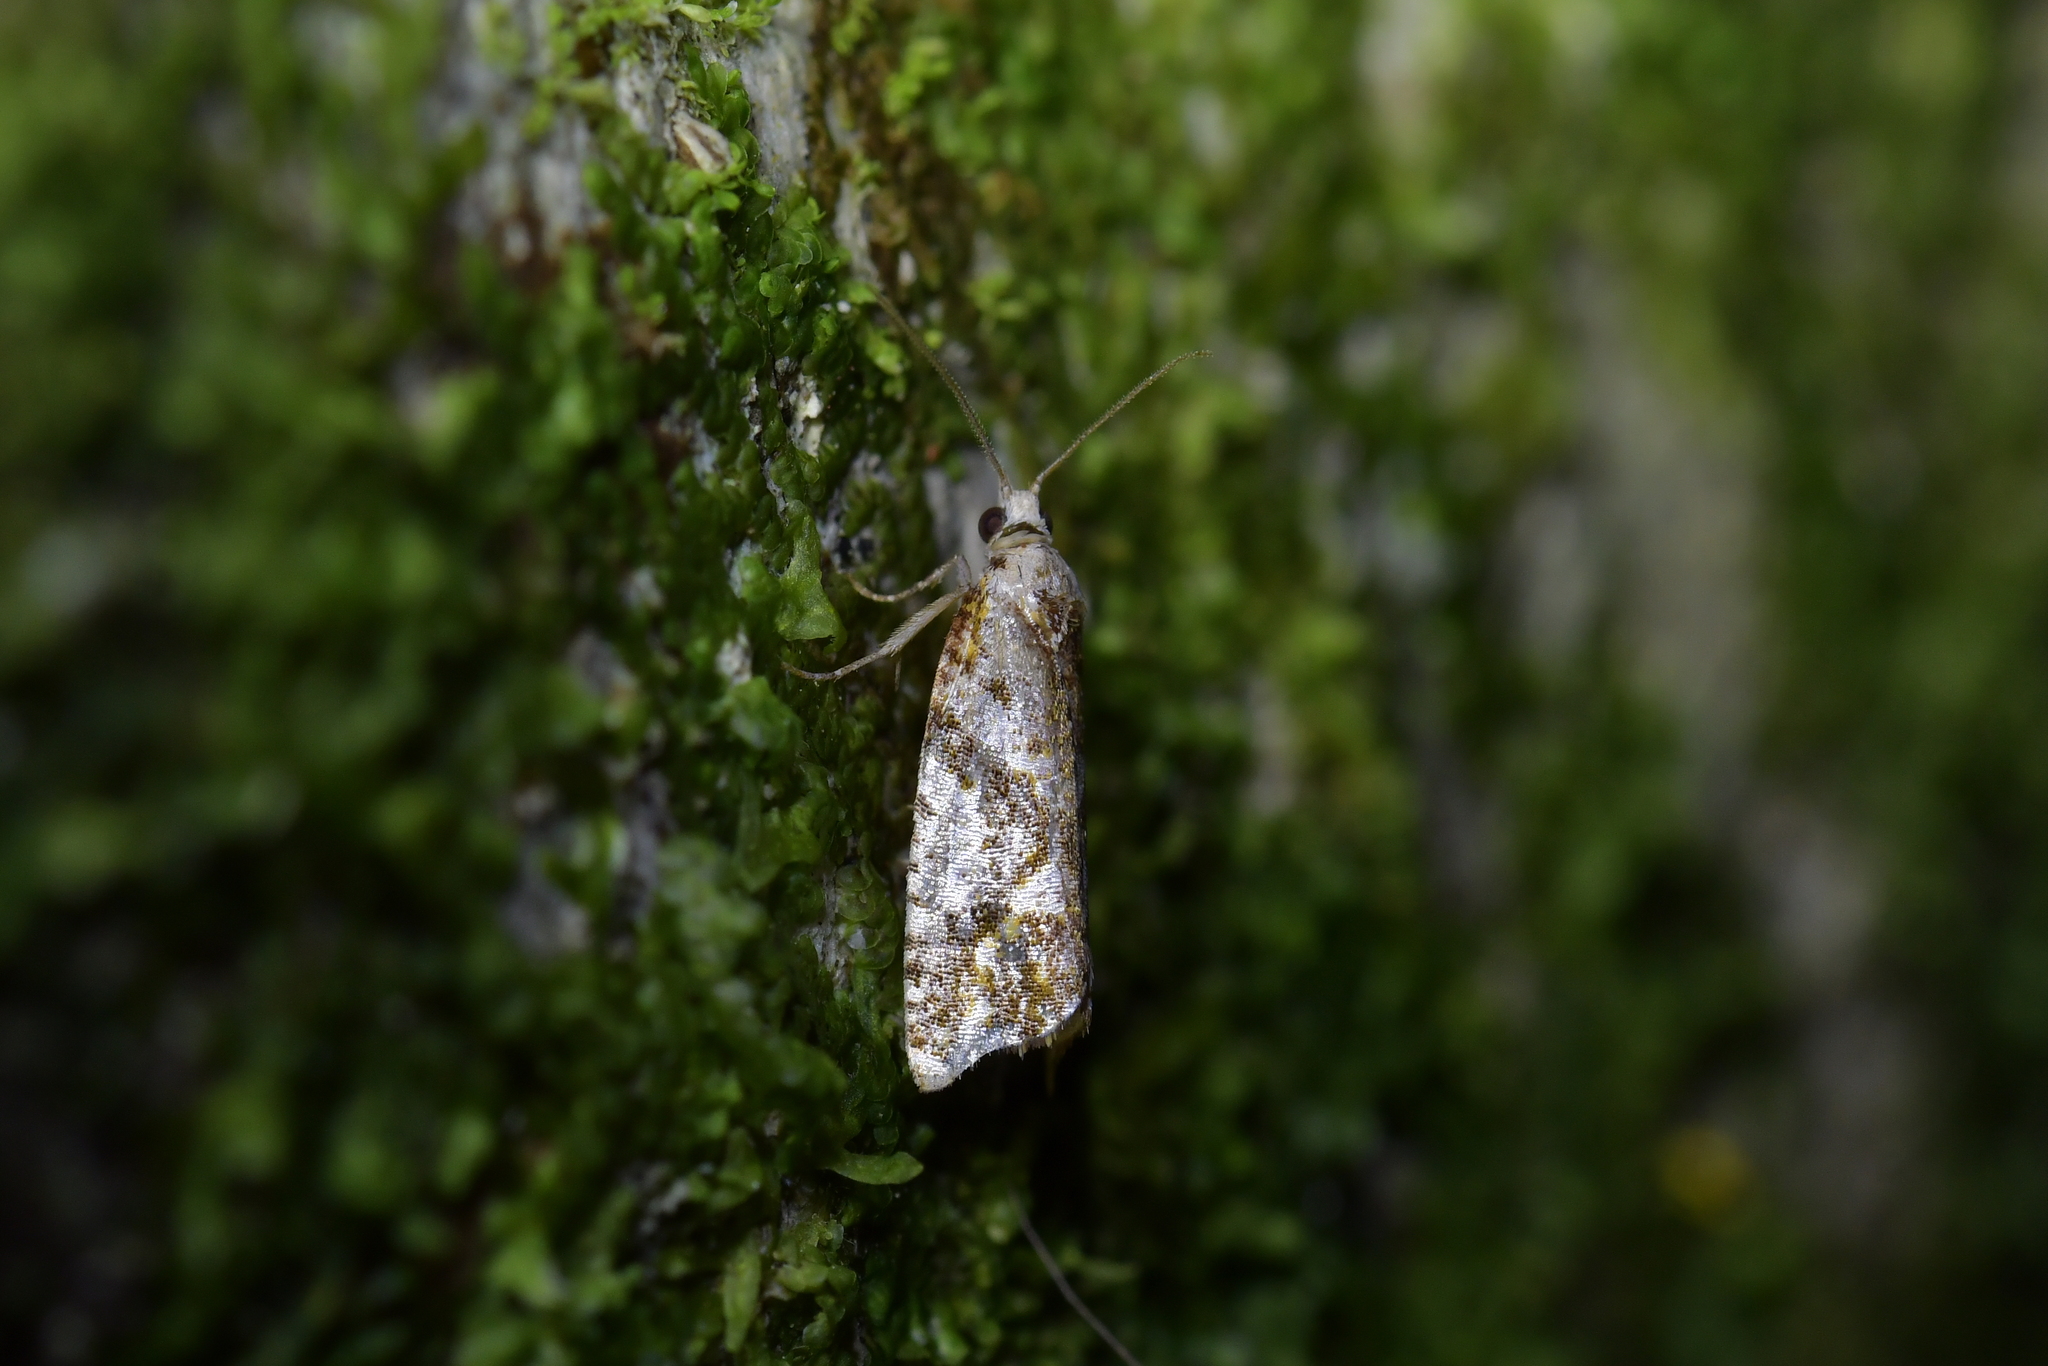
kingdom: Animalia
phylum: Arthropoda
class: Insecta
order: Lepidoptera
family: Tortricidae
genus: Pyrgotis
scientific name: Pyrgotis plagiatana
